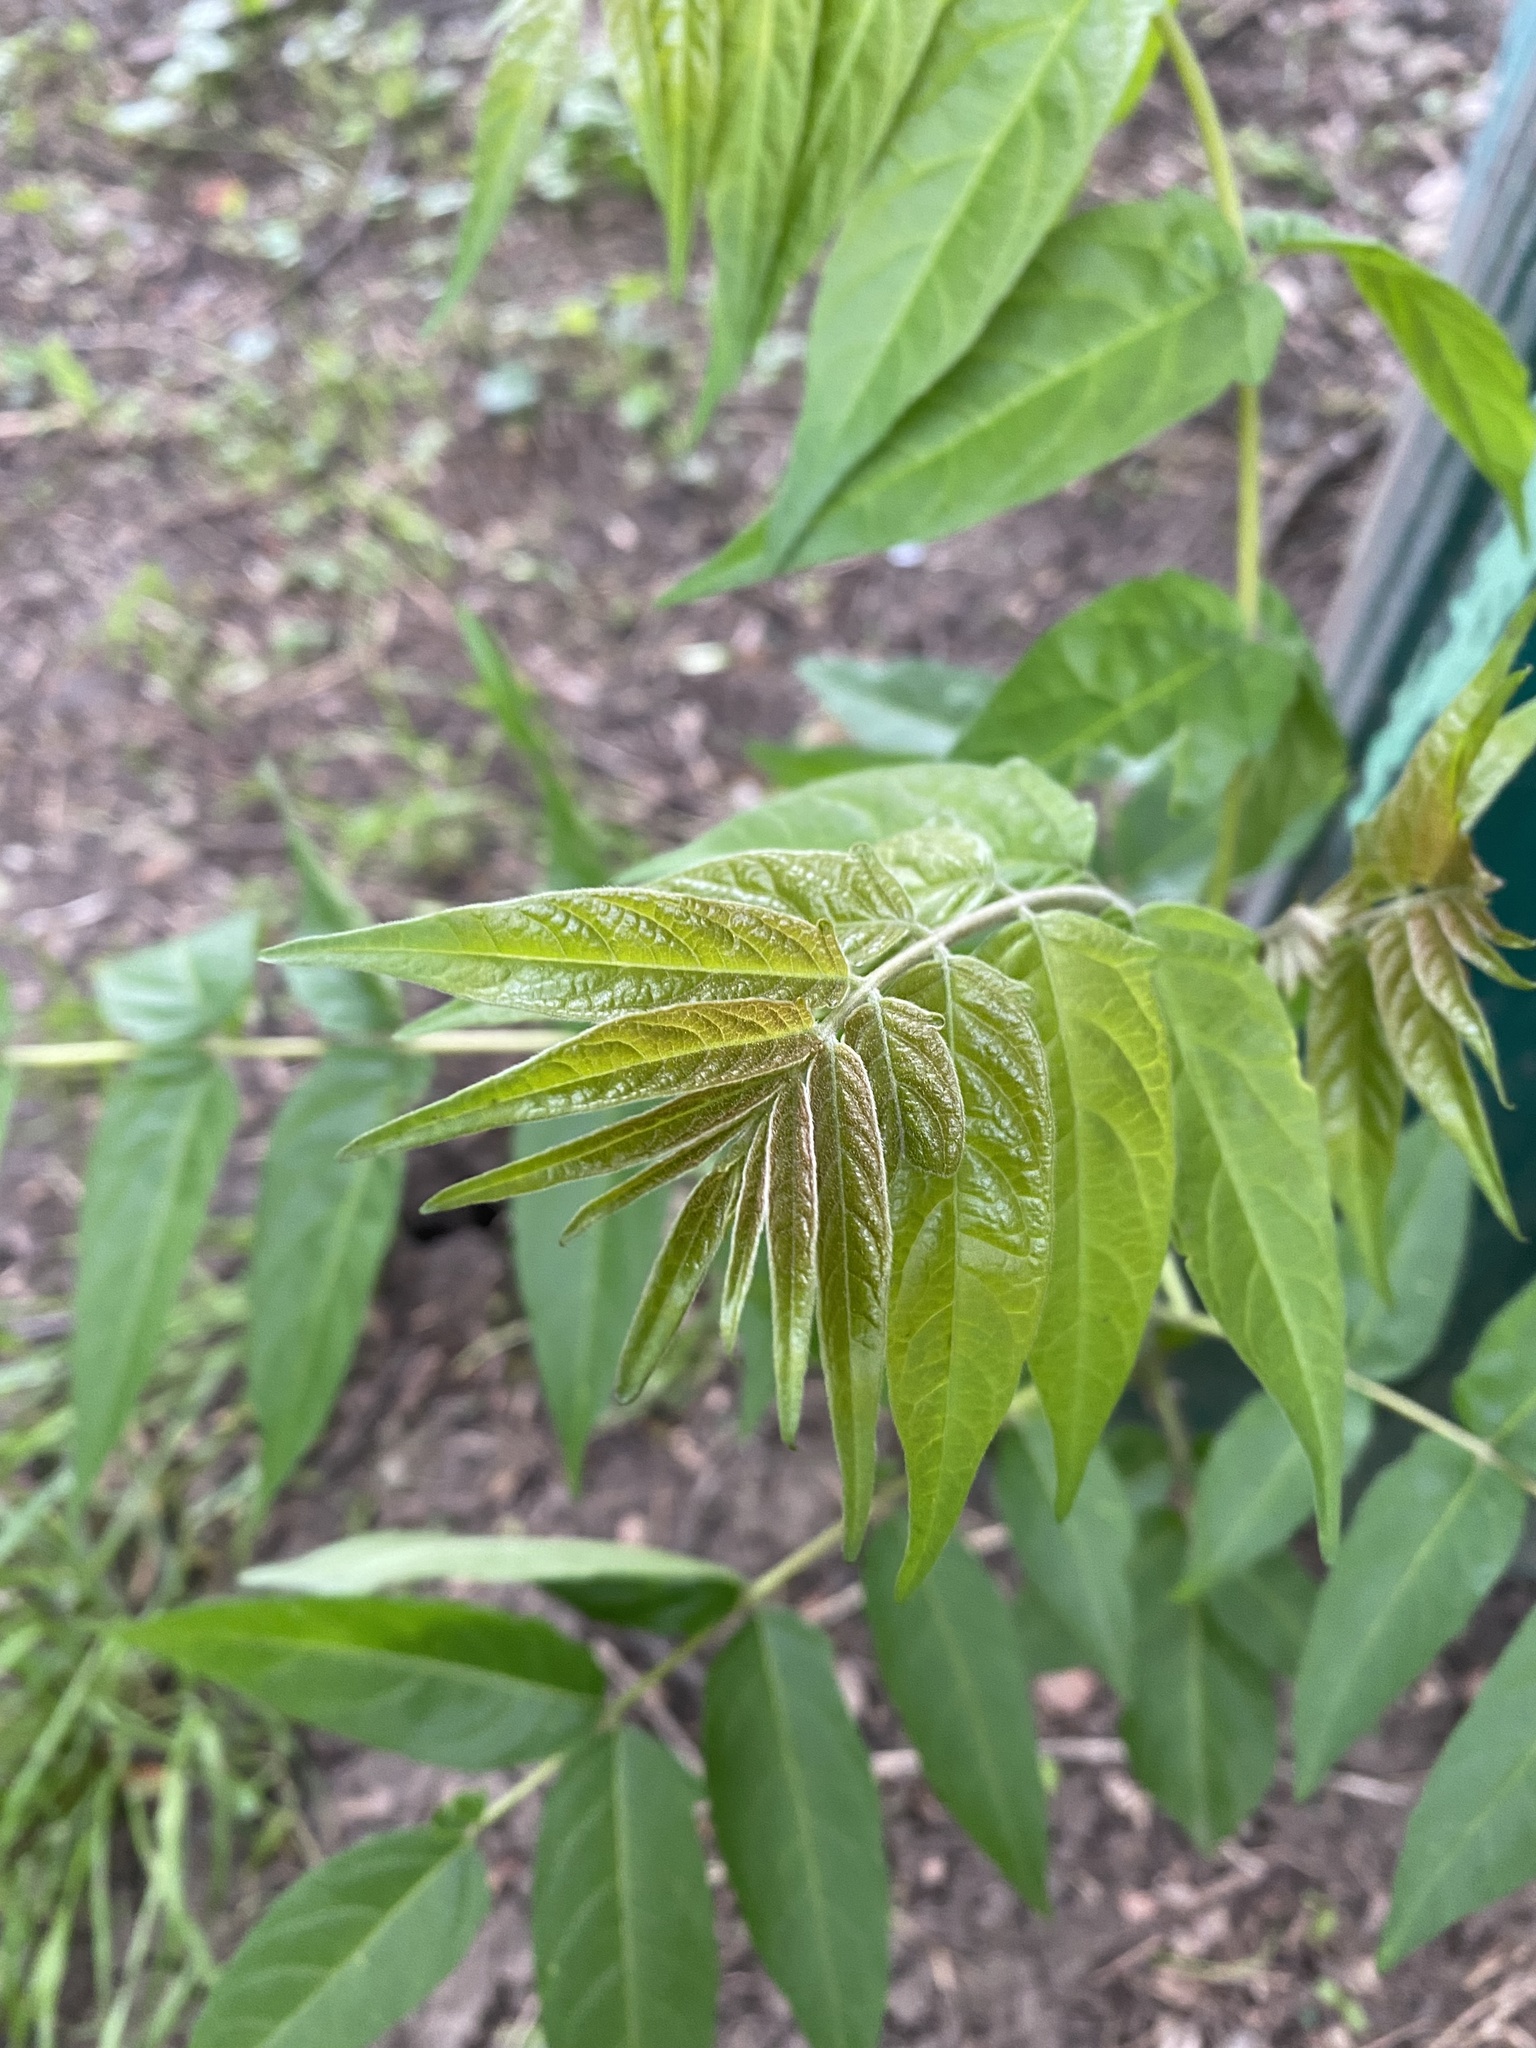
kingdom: Plantae
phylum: Tracheophyta
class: Magnoliopsida
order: Sapindales
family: Simaroubaceae
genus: Ailanthus
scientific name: Ailanthus altissima
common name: Tree-of-heaven
